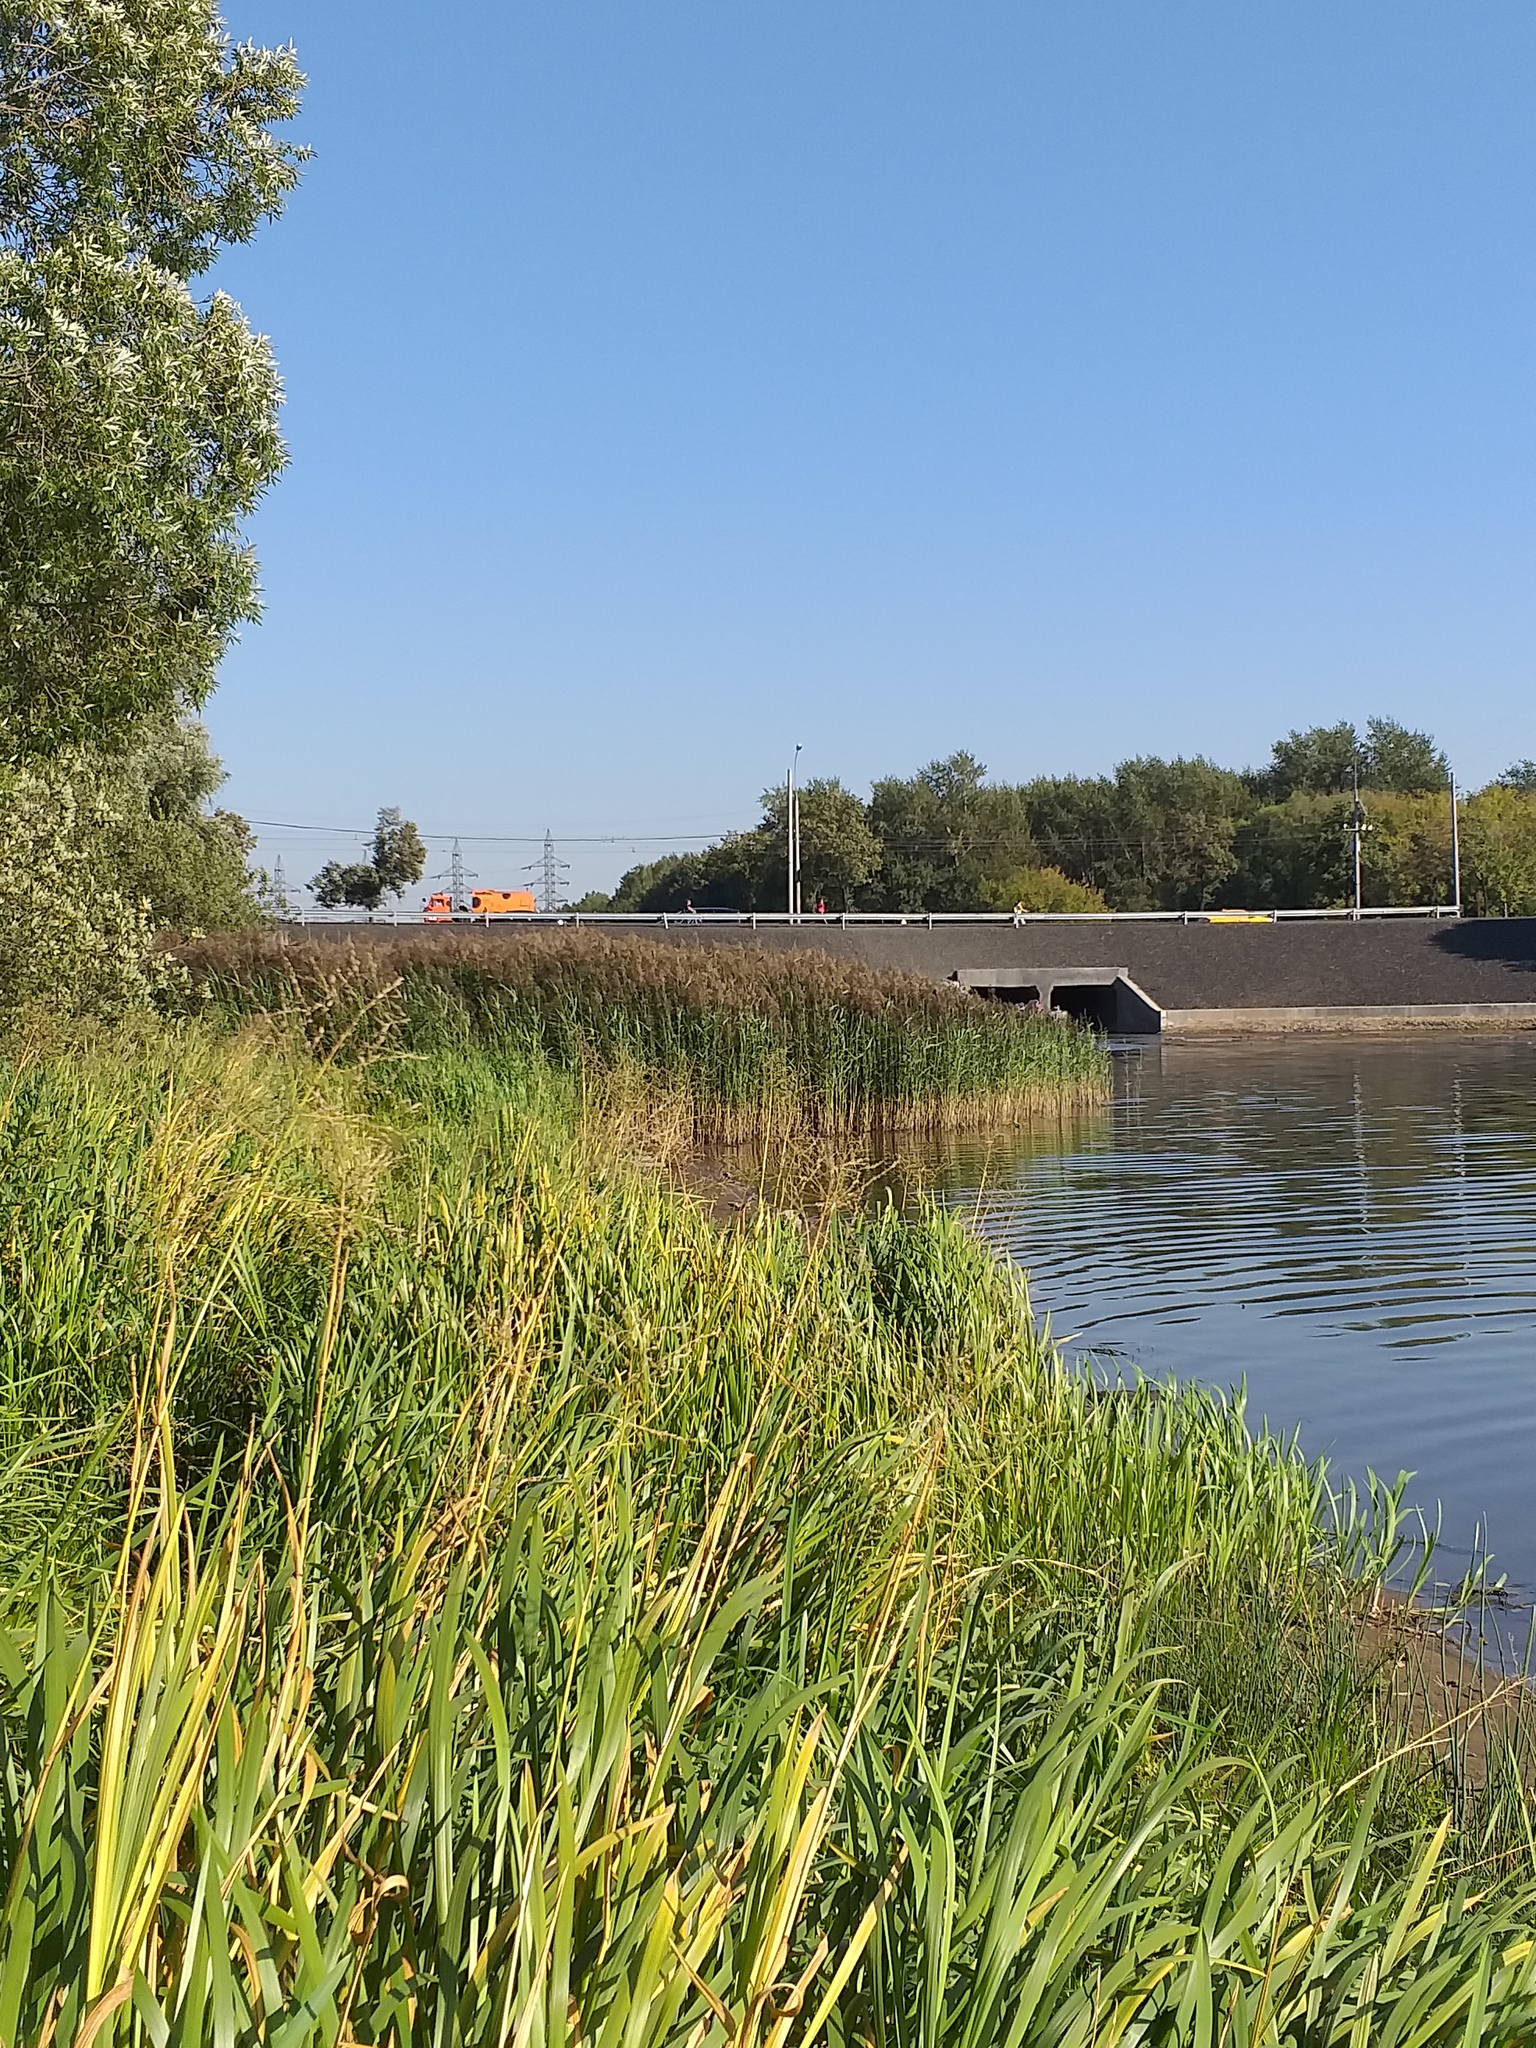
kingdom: Plantae
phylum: Tracheophyta
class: Liliopsida
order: Poales
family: Poaceae
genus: Phragmites
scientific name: Phragmites australis
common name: Common reed
